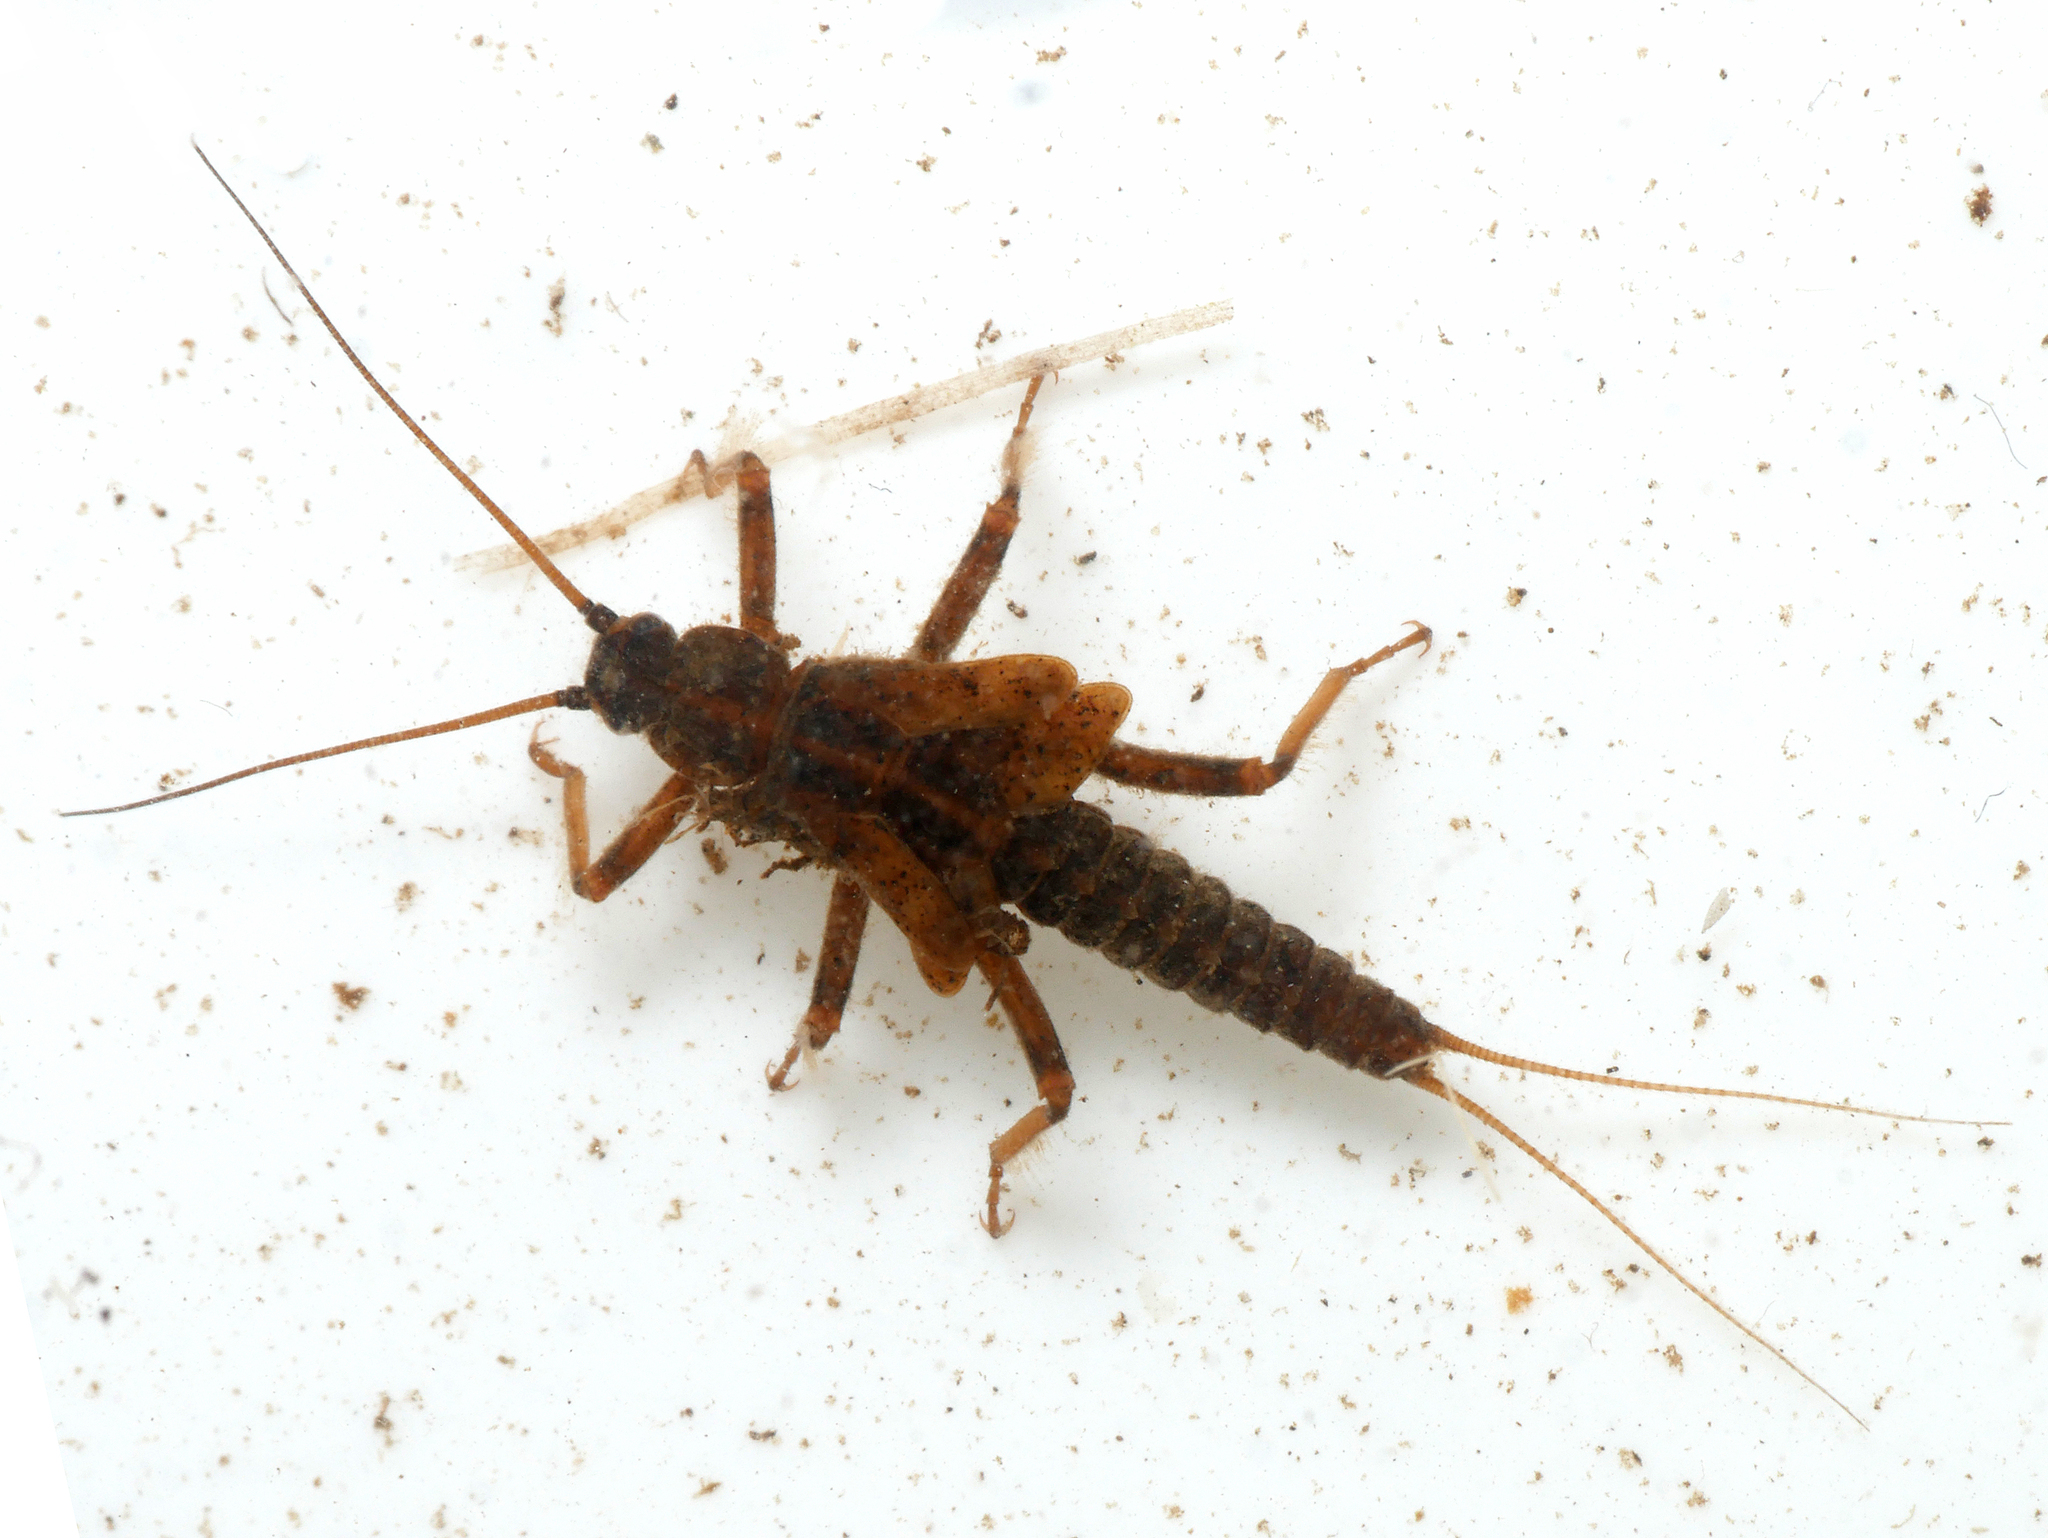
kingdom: Animalia
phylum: Arthropoda
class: Insecta
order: Plecoptera
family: Taeniopterygidae
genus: Taeniopteryx
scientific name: Taeniopteryx nebulosa
